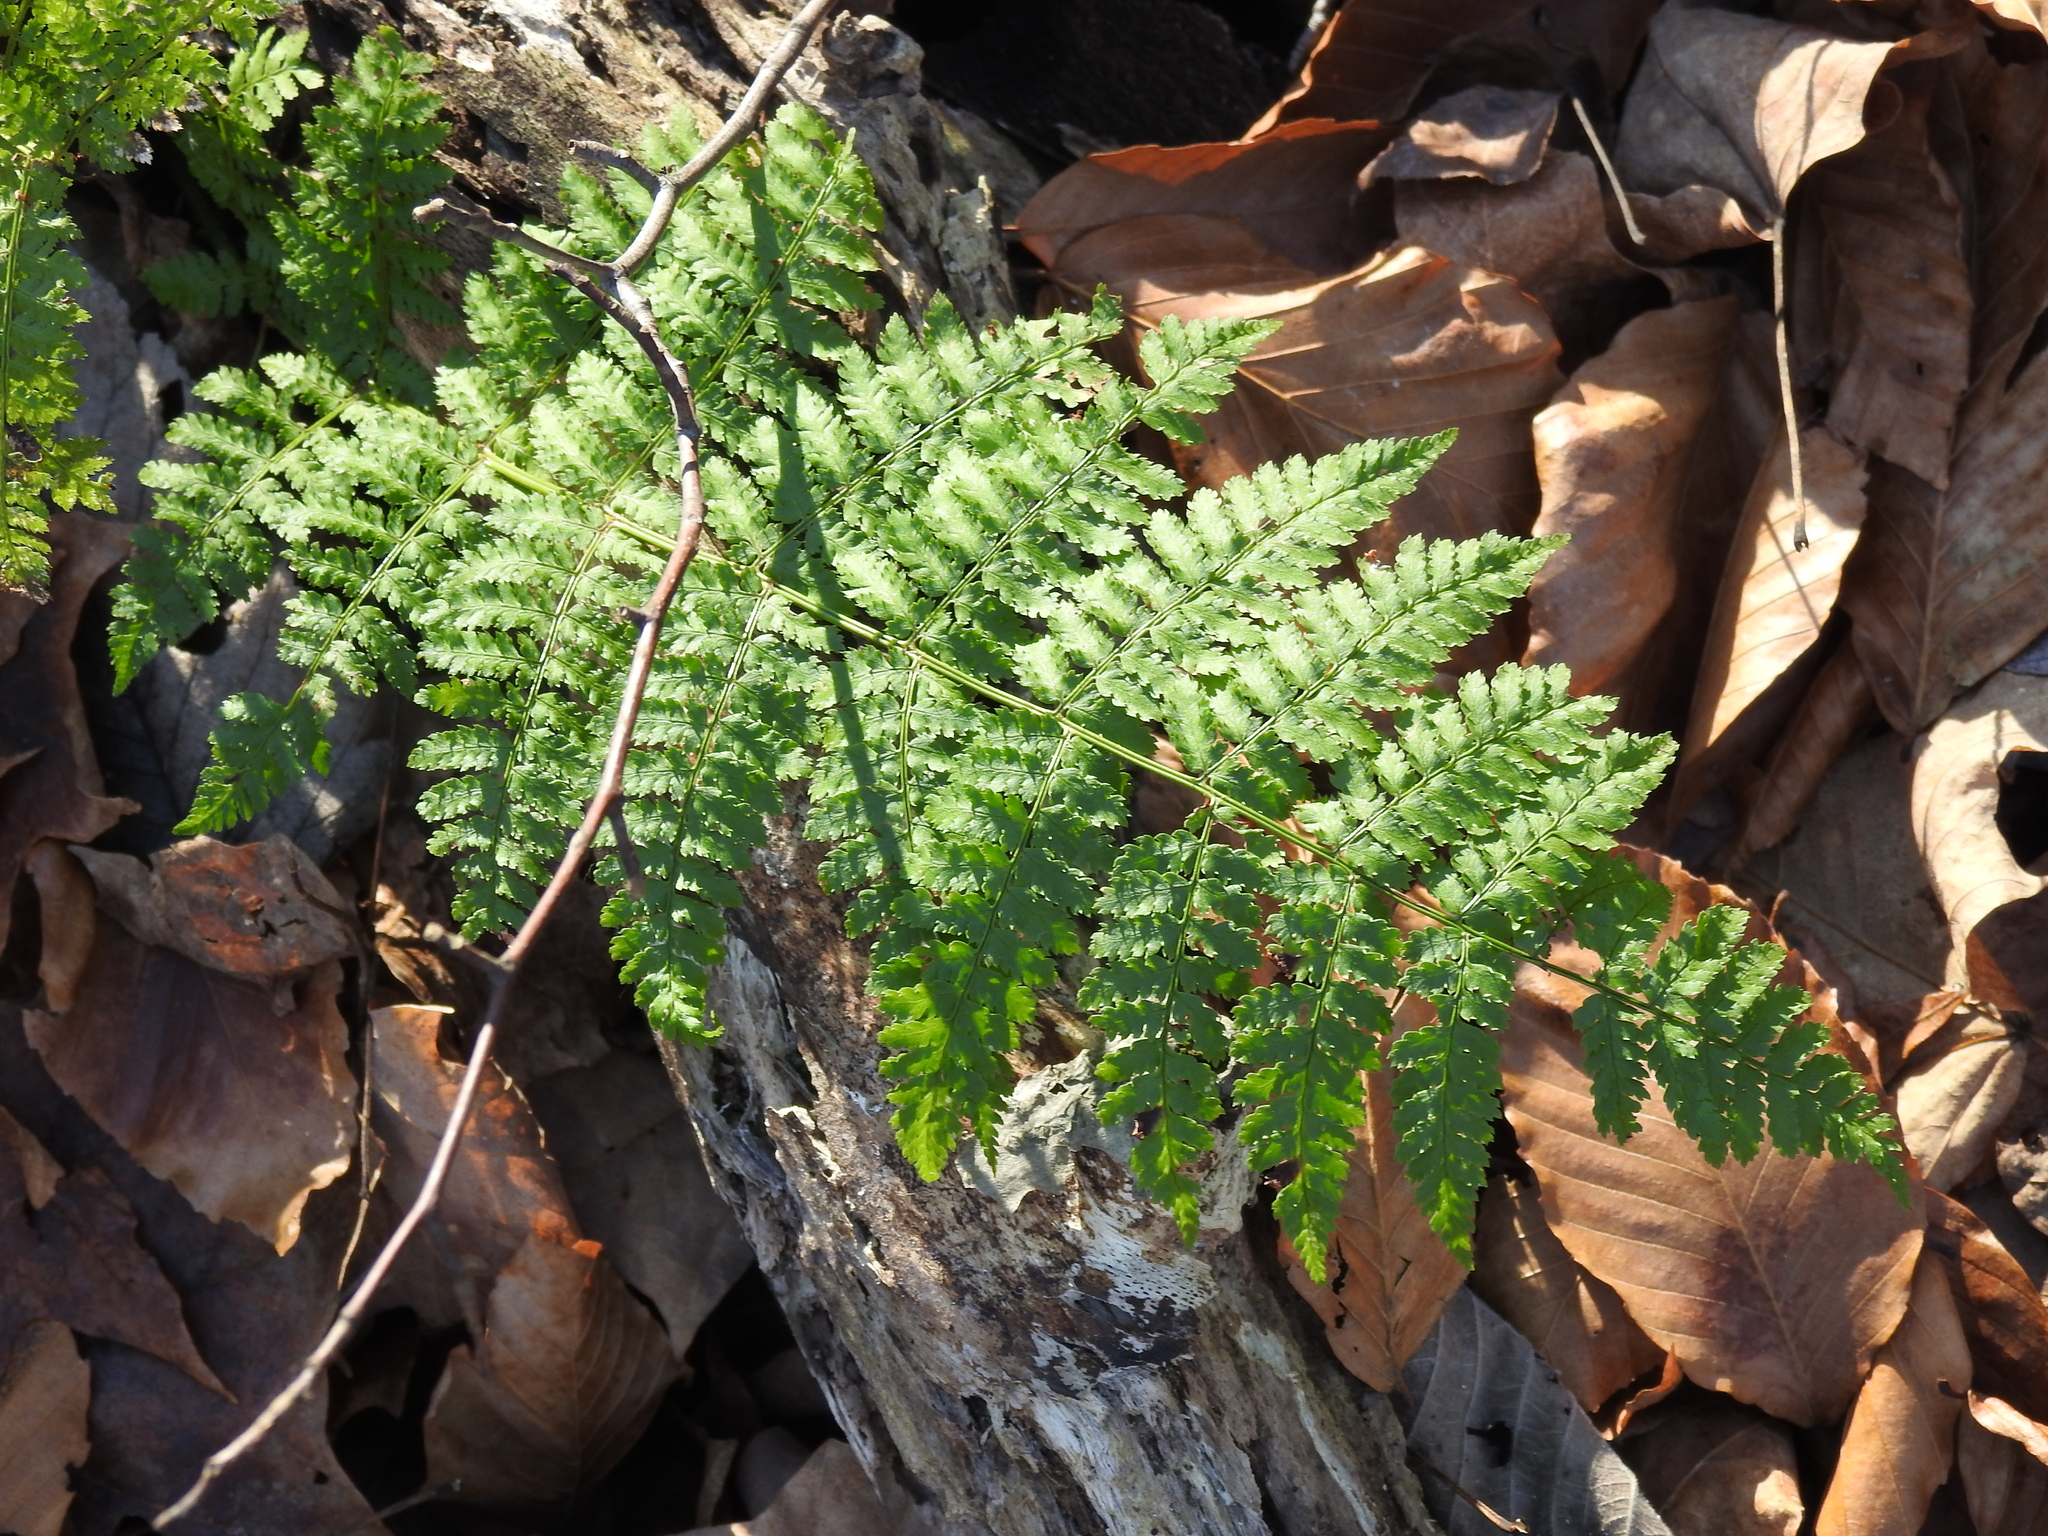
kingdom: Plantae
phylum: Tracheophyta
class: Polypodiopsida
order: Polypodiales
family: Dryopteridaceae
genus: Dryopteris
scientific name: Dryopteris carthusiana
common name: Narrow buckler-fern
